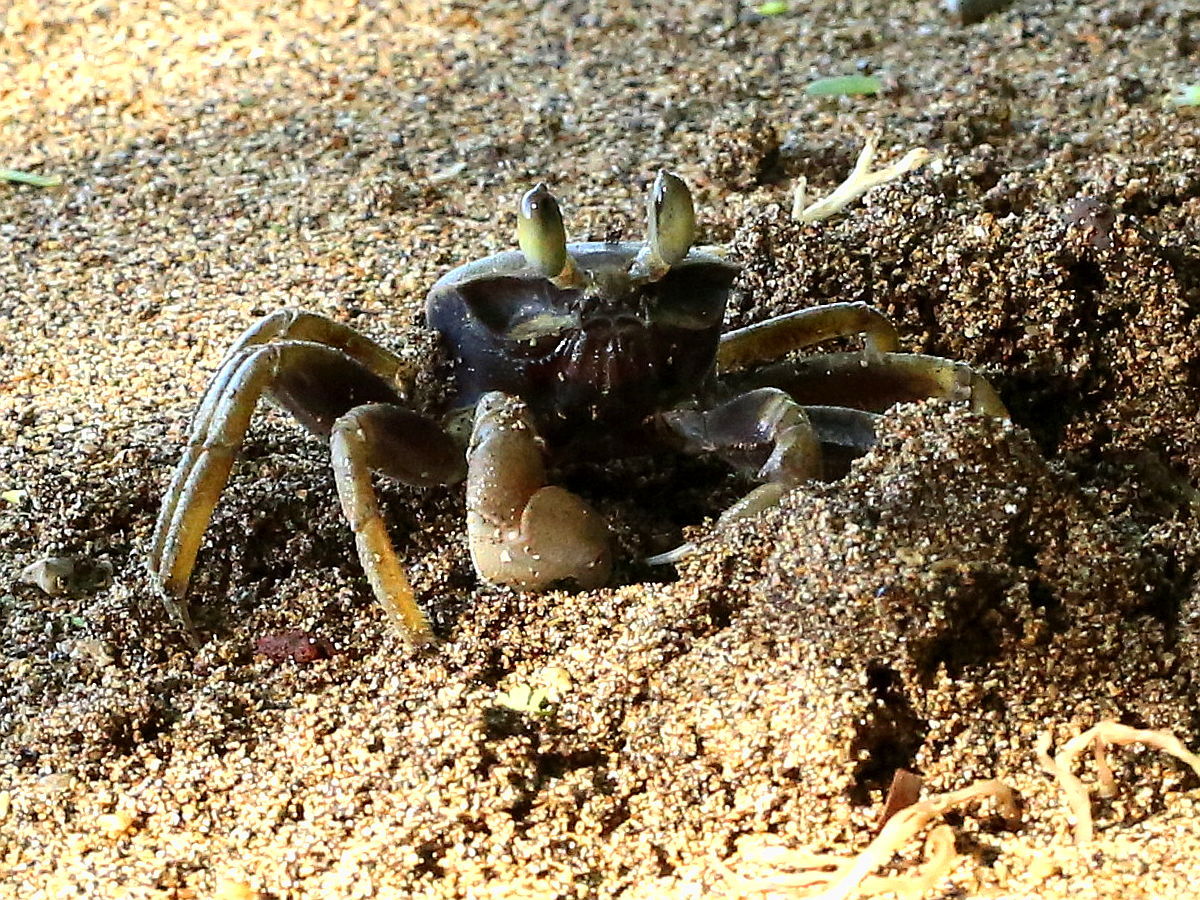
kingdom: Animalia
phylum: Arthropoda
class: Malacostraca
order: Decapoda
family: Ocypodidae
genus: Ocypode
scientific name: Ocypode ceratophthalmus
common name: Indo-pacific ghost crab
